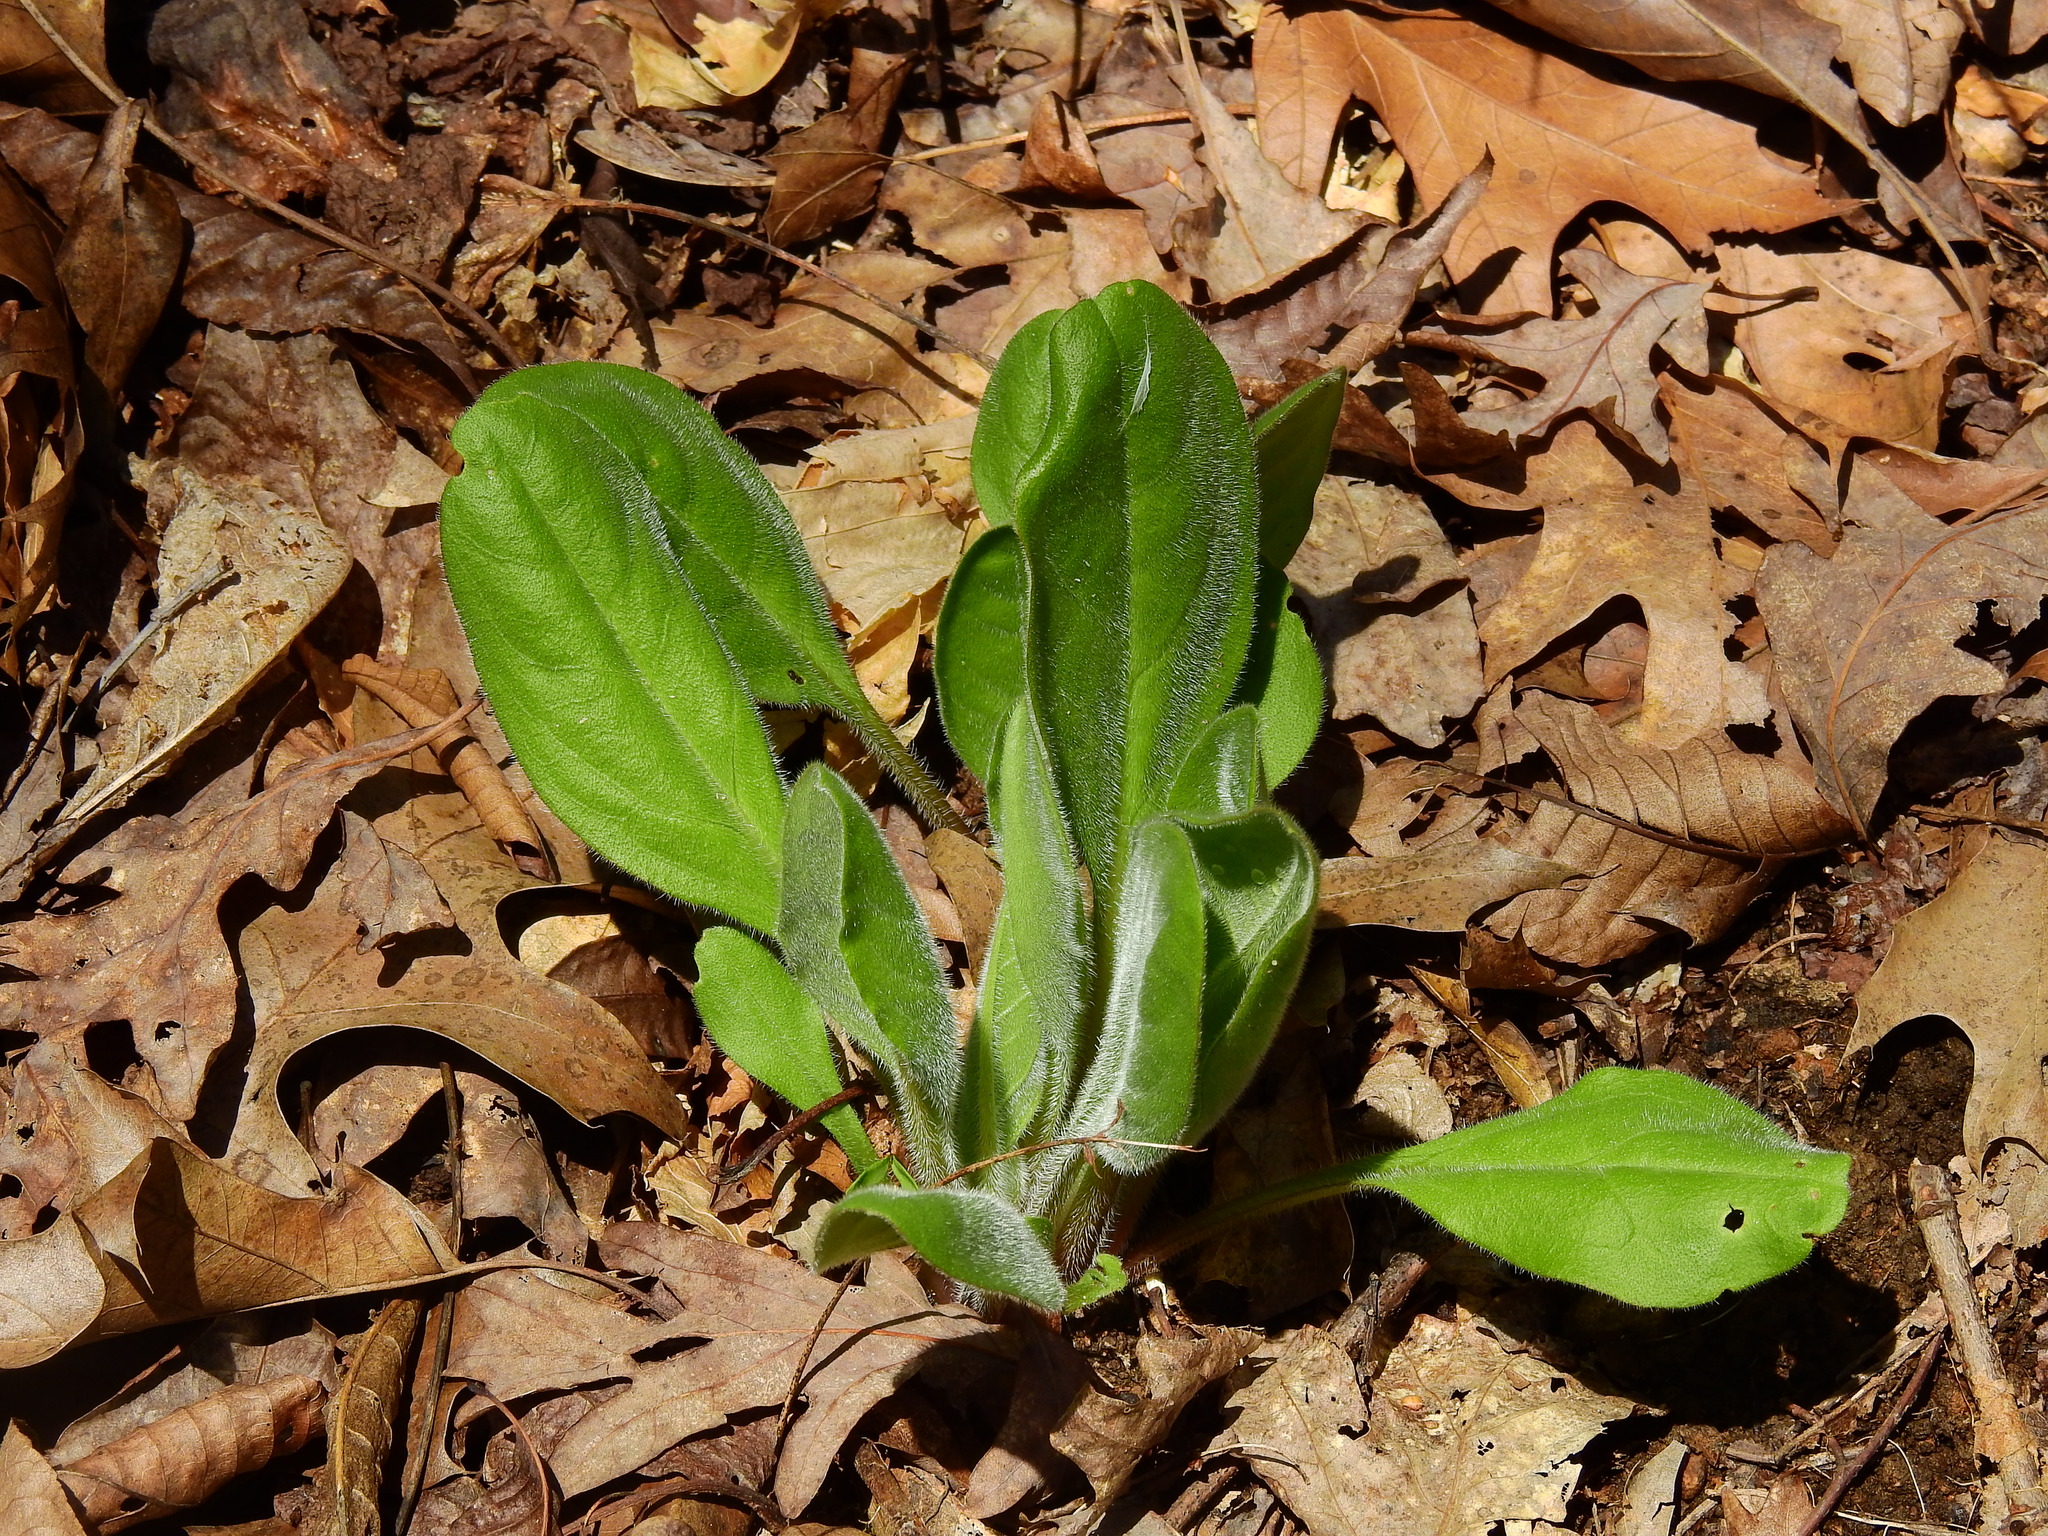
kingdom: Plantae
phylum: Tracheophyta
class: Magnoliopsida
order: Boraginales
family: Boraginaceae
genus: Andersonglossum
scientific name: Andersonglossum virginianum
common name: Wild comfrey
